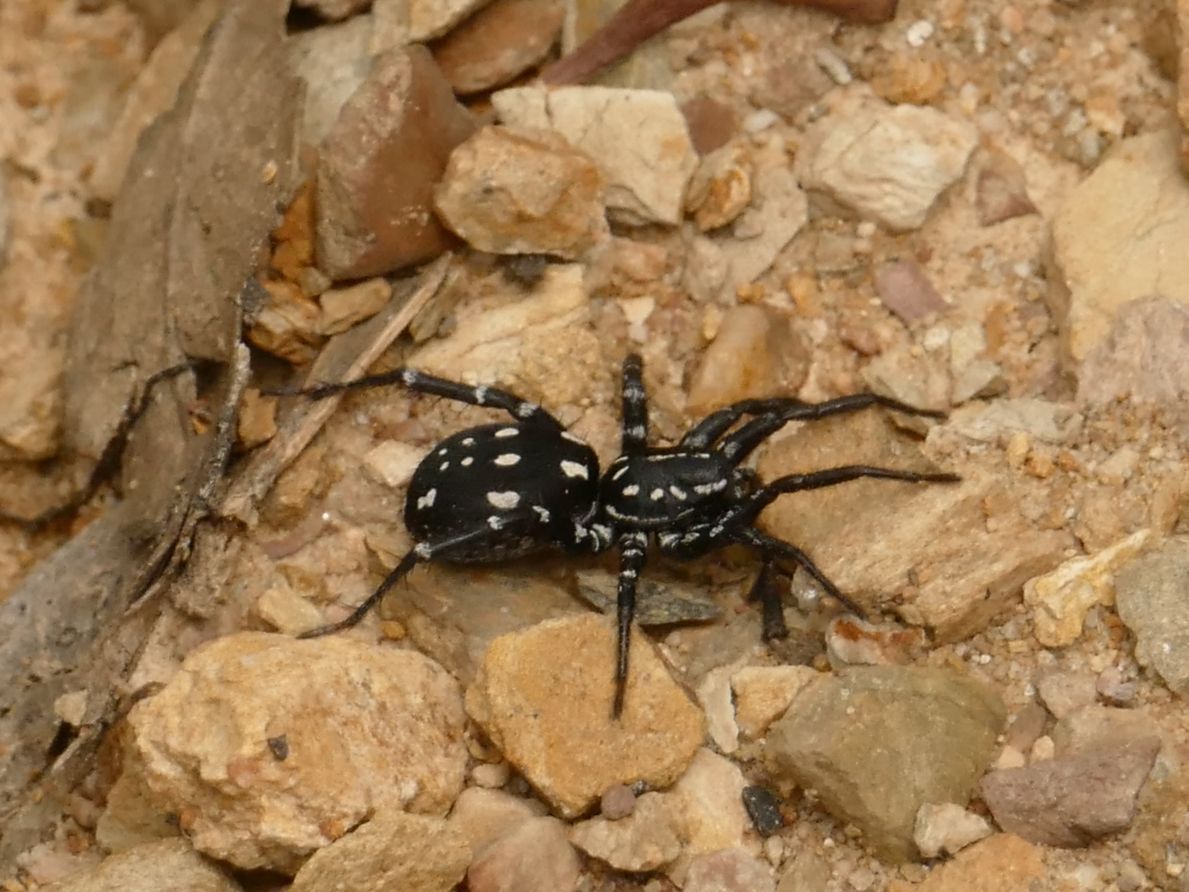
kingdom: Animalia
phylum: Arthropoda
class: Arachnida
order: Araneae
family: Corinnidae
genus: Nyssus
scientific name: Nyssus albopunctatus
